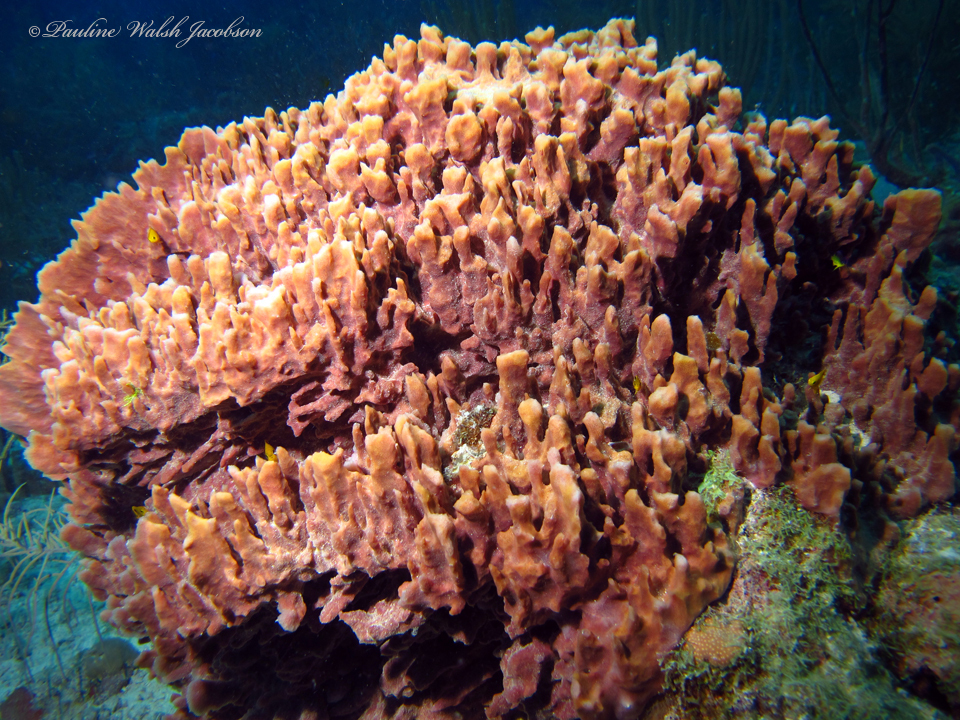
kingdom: Animalia
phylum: Porifera
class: Demospongiae
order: Haplosclerida
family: Petrosiidae
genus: Xestospongia
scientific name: Xestospongia muta
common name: Giant barrel sponge
